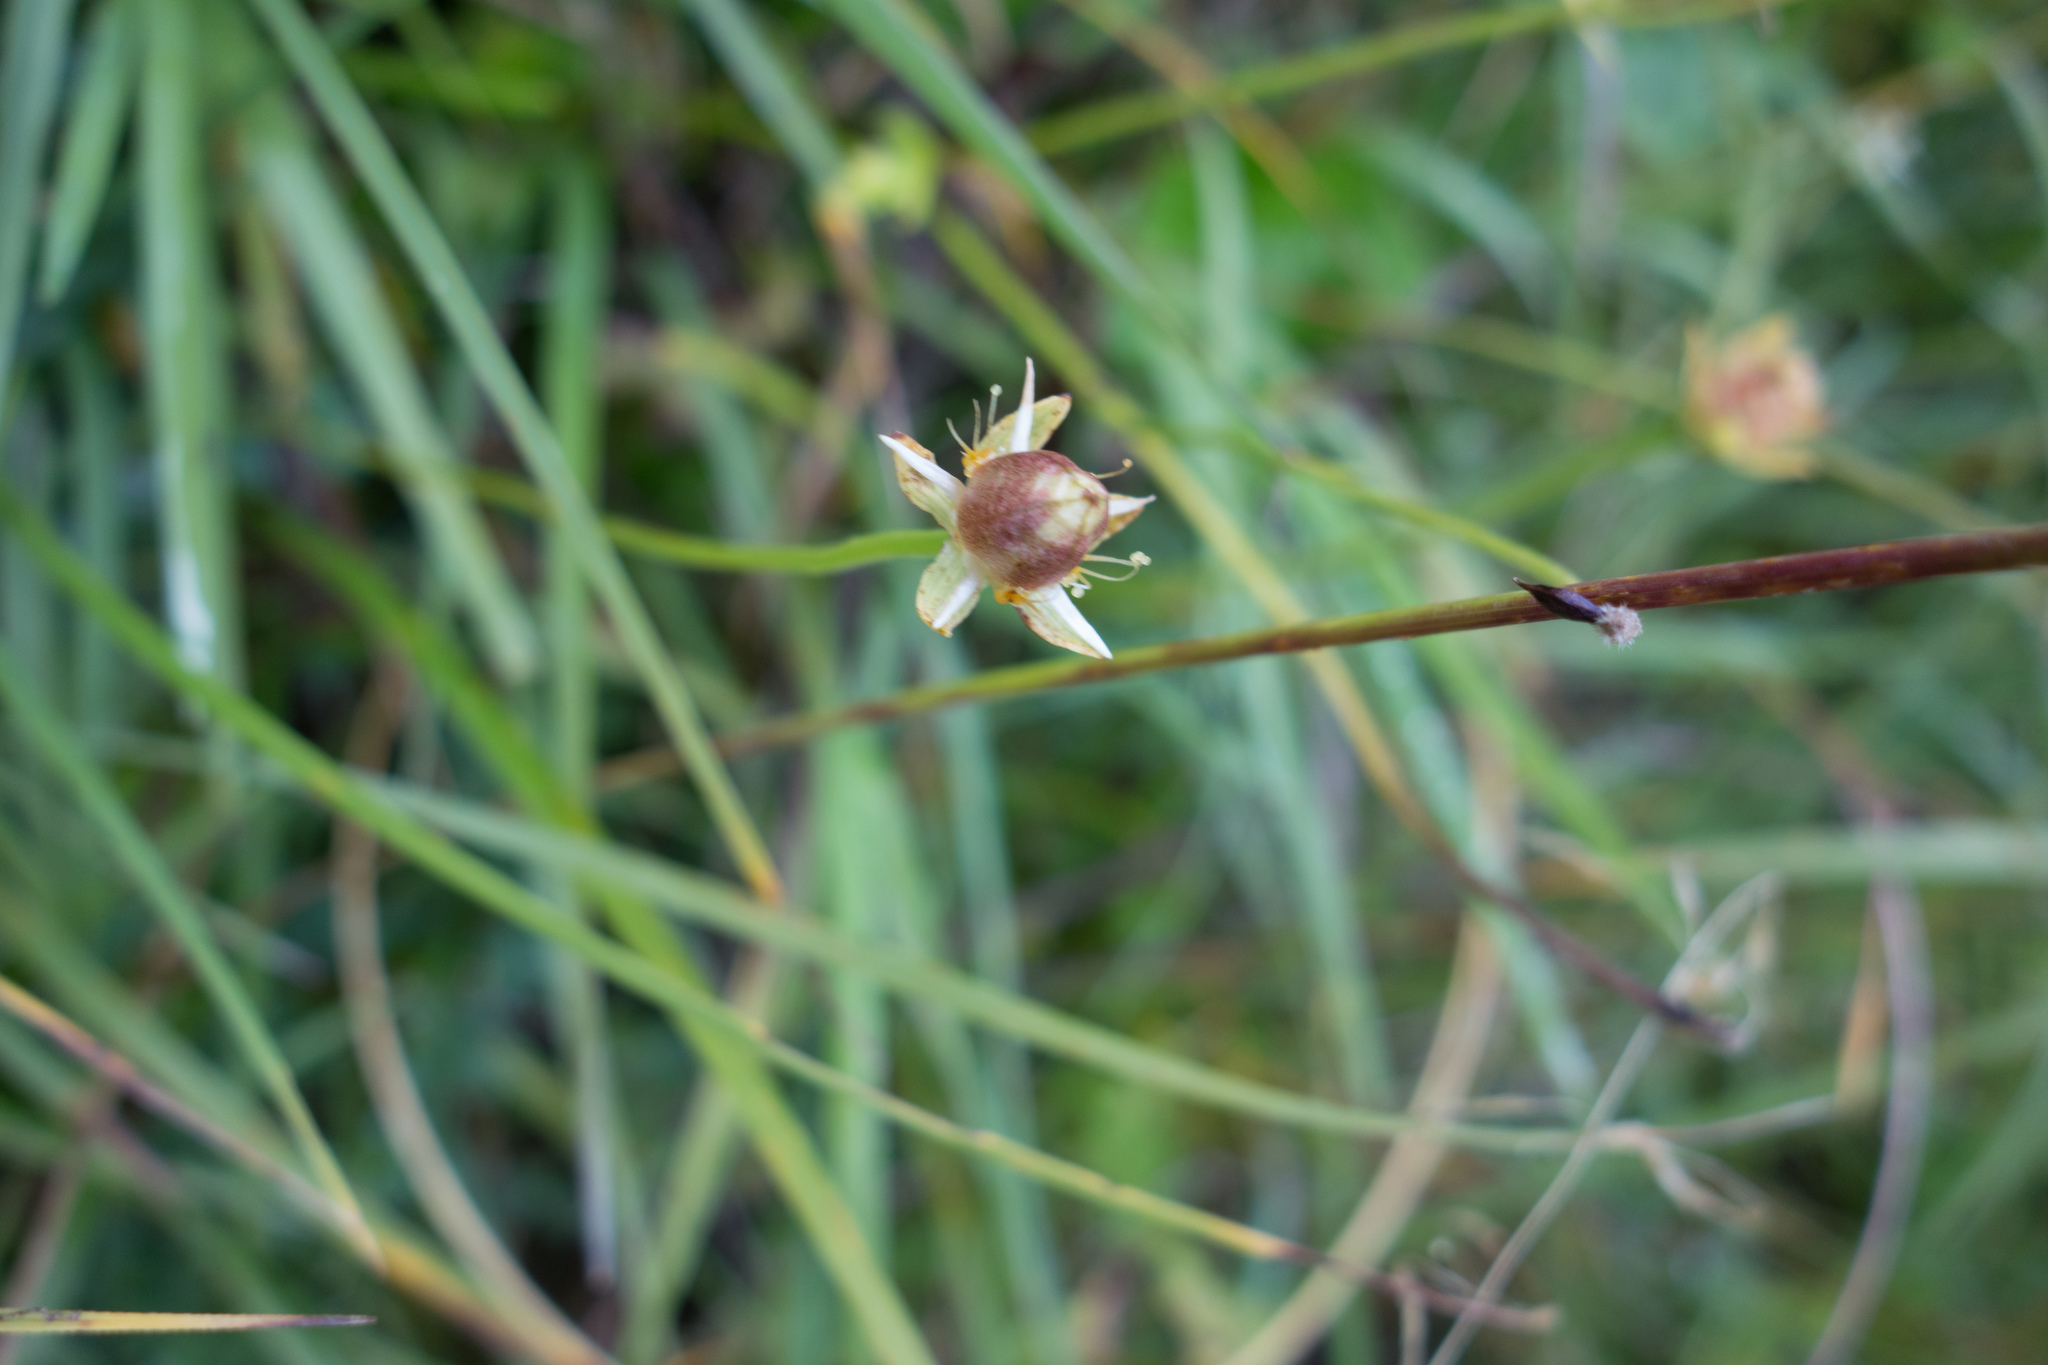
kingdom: Plantae
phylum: Tracheophyta
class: Magnoliopsida
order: Celastrales
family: Parnassiaceae
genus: Parnassia
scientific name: Parnassia palustris
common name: Grass-of-parnassus
